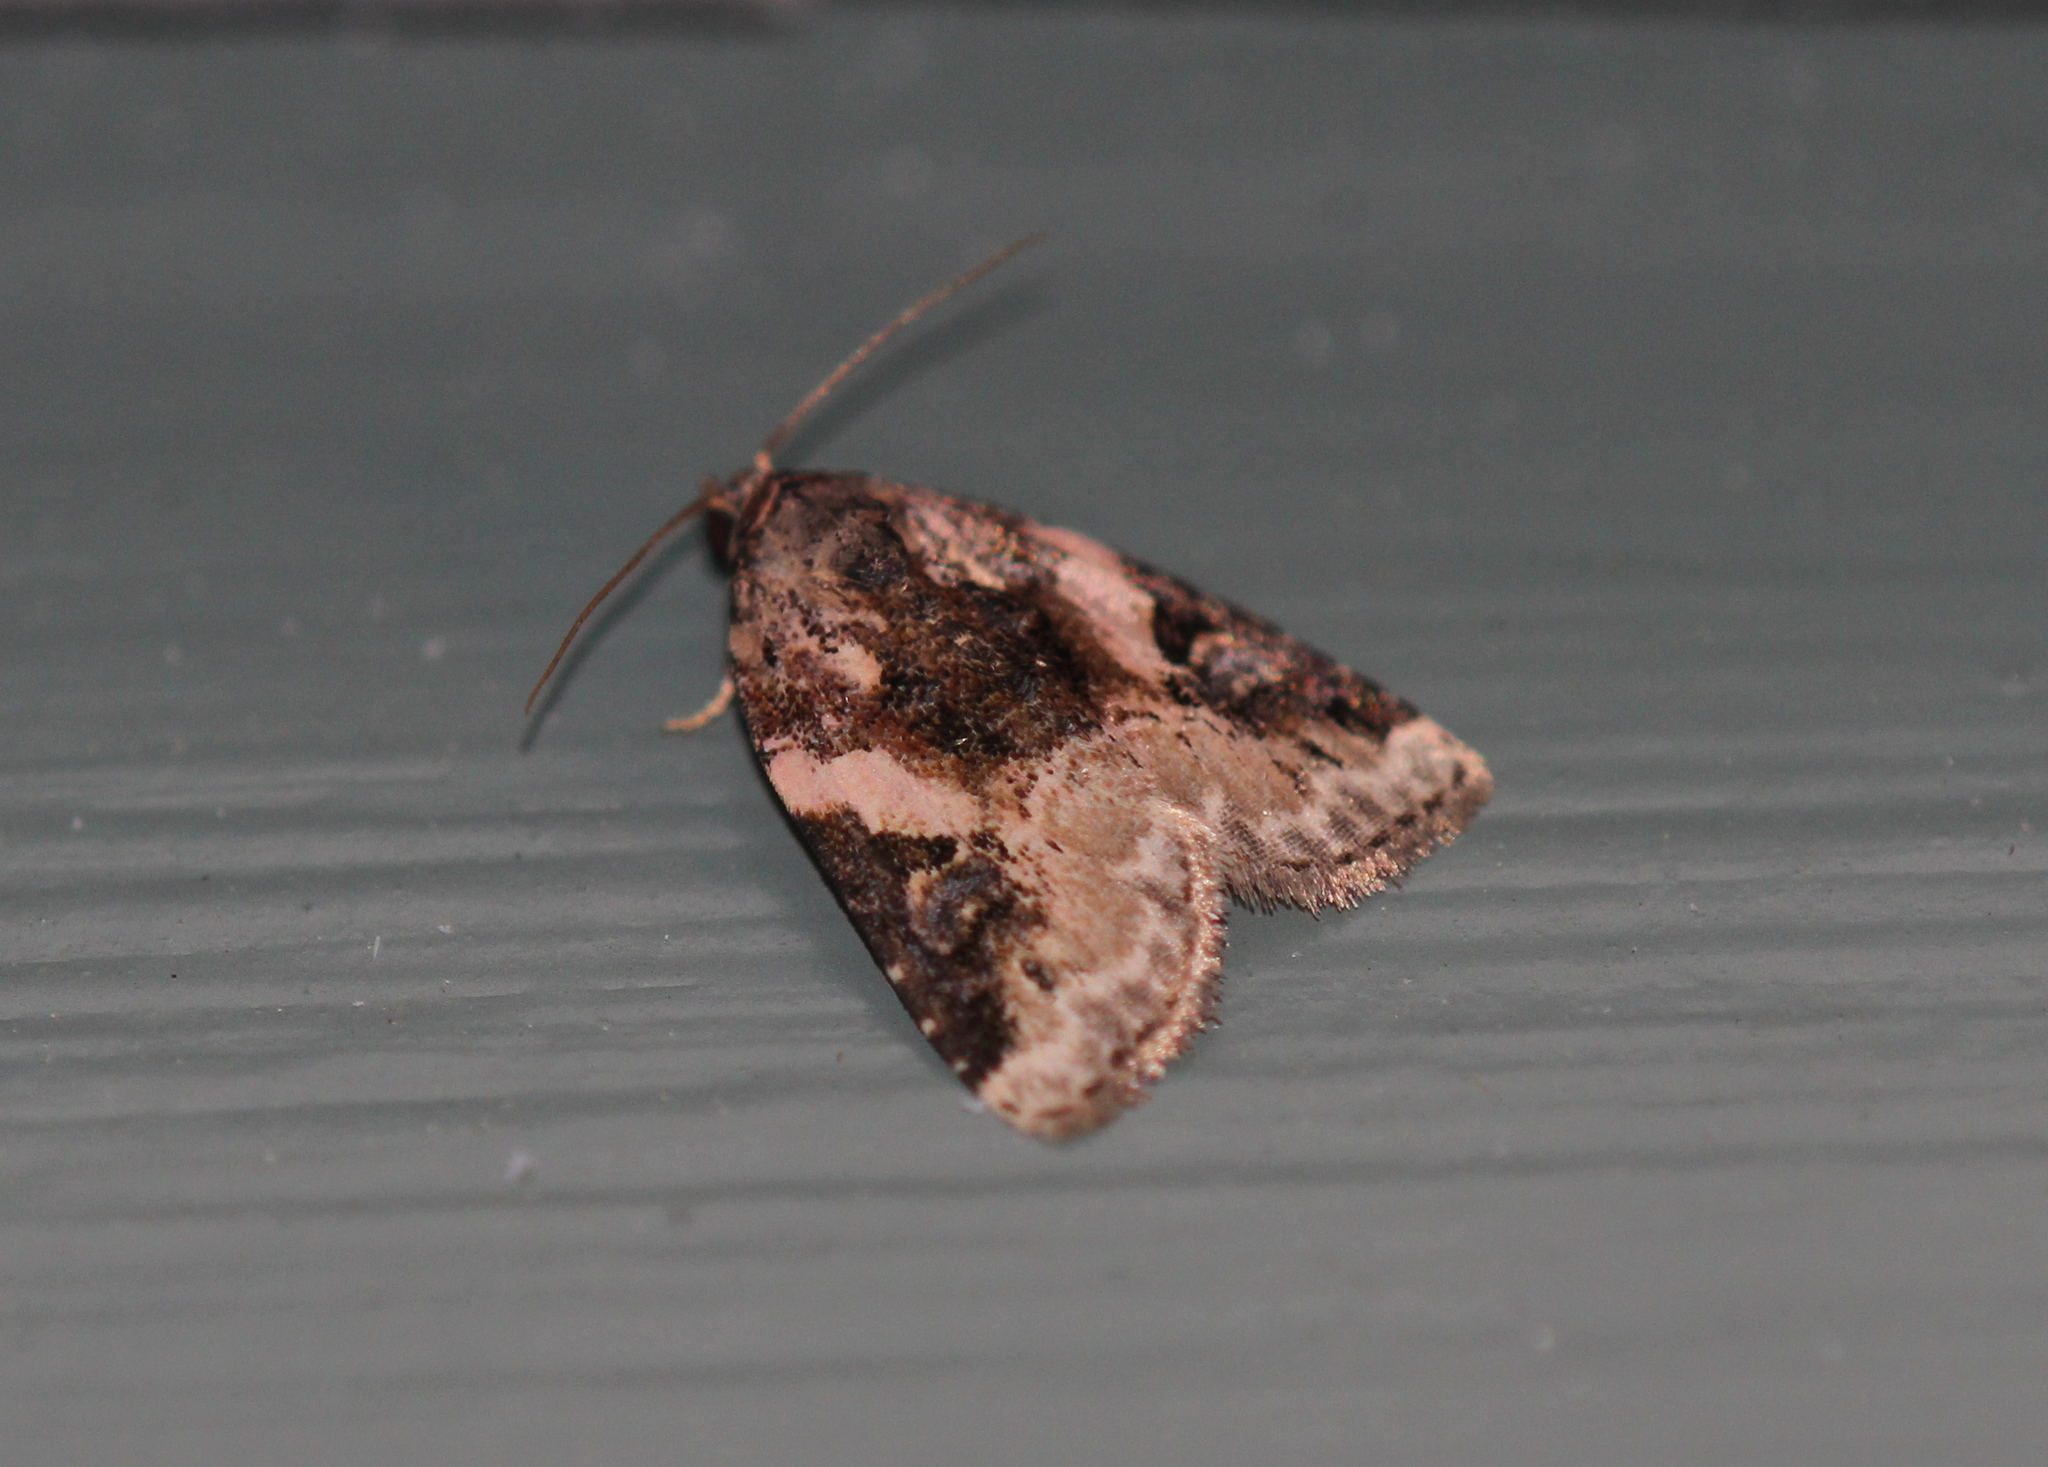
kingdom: Animalia
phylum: Arthropoda
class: Insecta
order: Lepidoptera
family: Noctuidae
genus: Pseudeustrotia
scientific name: Pseudeustrotia carneola
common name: Pink-barred lithacodia moth
